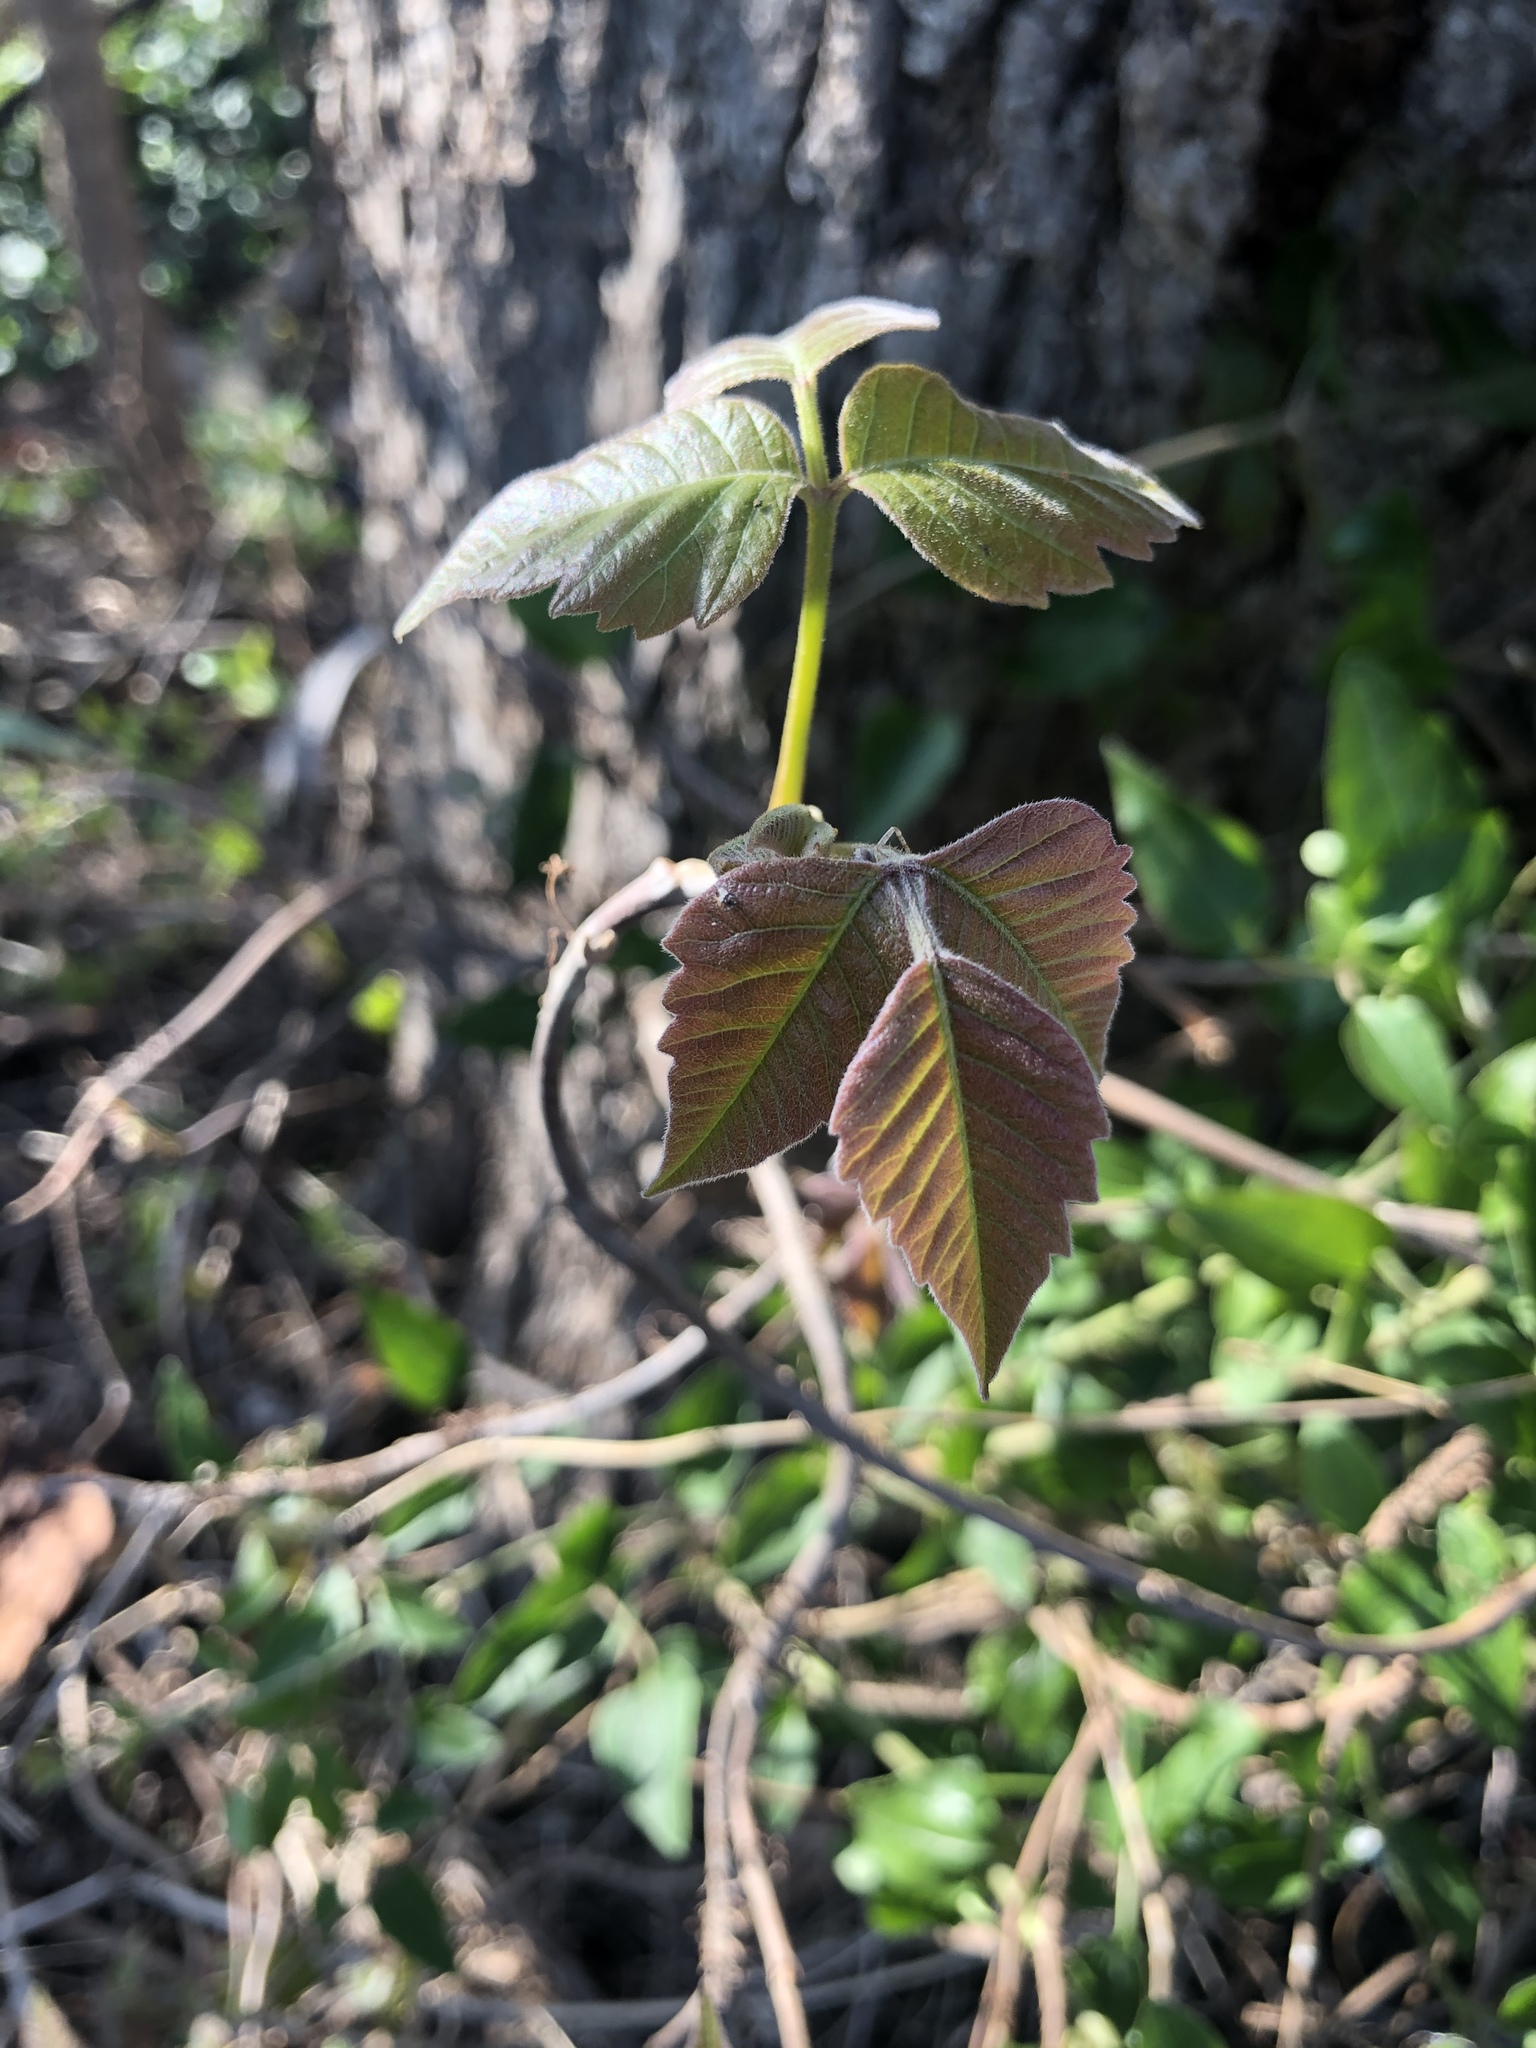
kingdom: Plantae
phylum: Tracheophyta
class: Magnoliopsida
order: Sapindales
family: Anacardiaceae
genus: Toxicodendron
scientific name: Toxicodendron radicans
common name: Poison ivy
